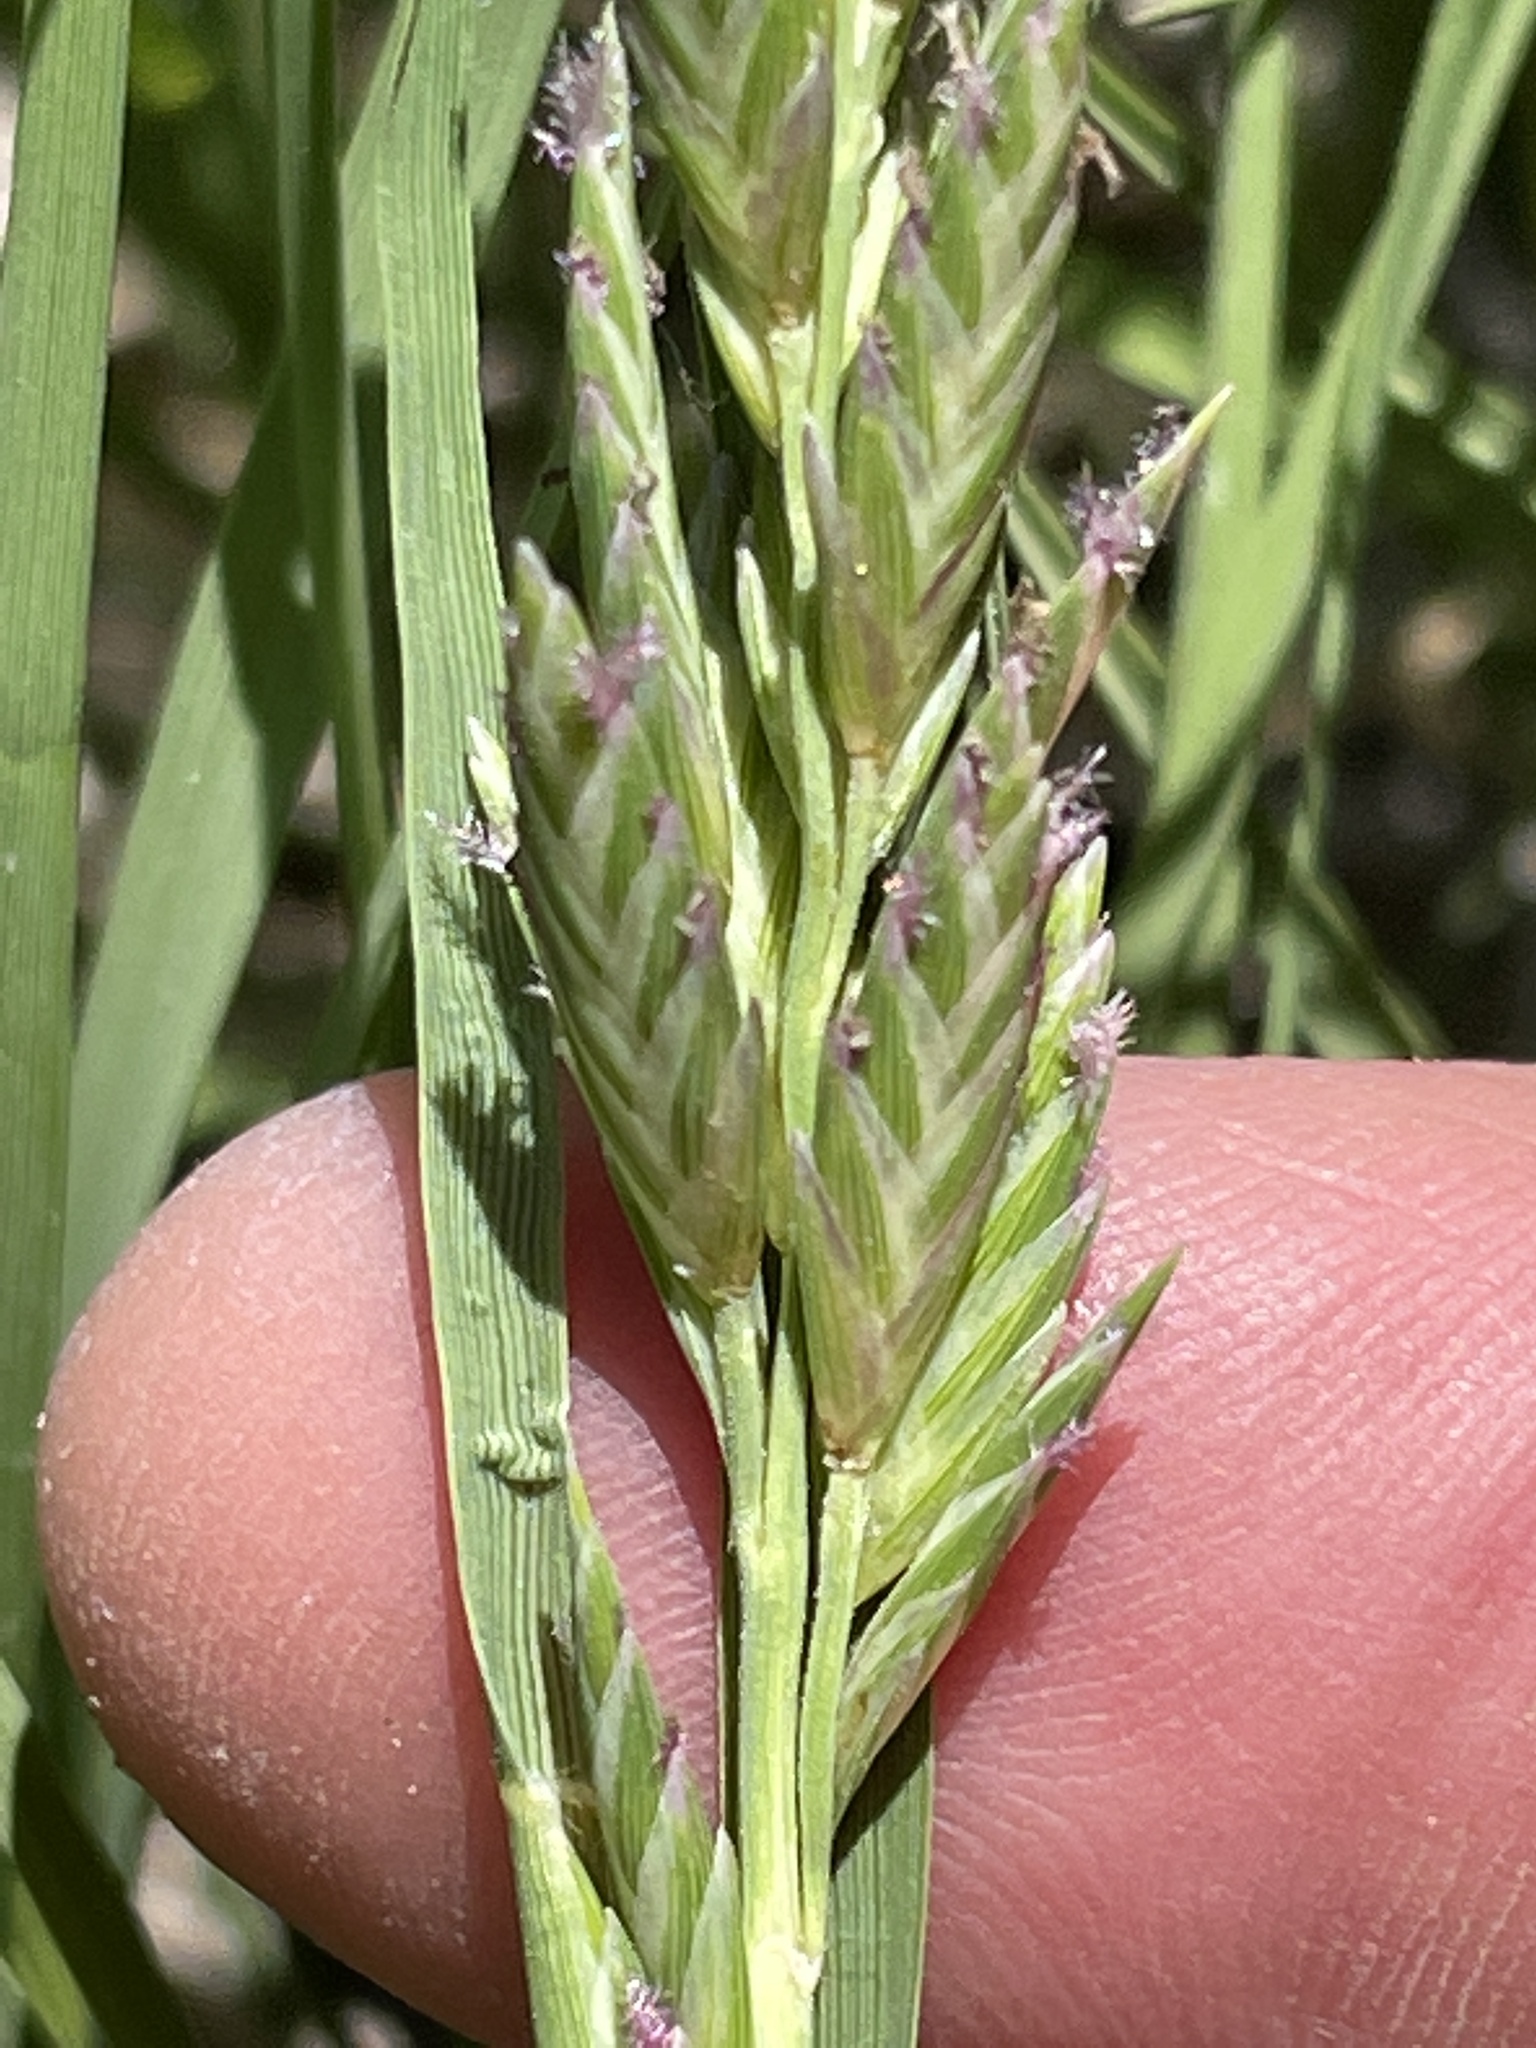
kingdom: Plantae
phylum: Tracheophyta
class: Liliopsida
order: Poales
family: Poaceae
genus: Distichlis
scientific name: Distichlis spicata
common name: Saltgrass
